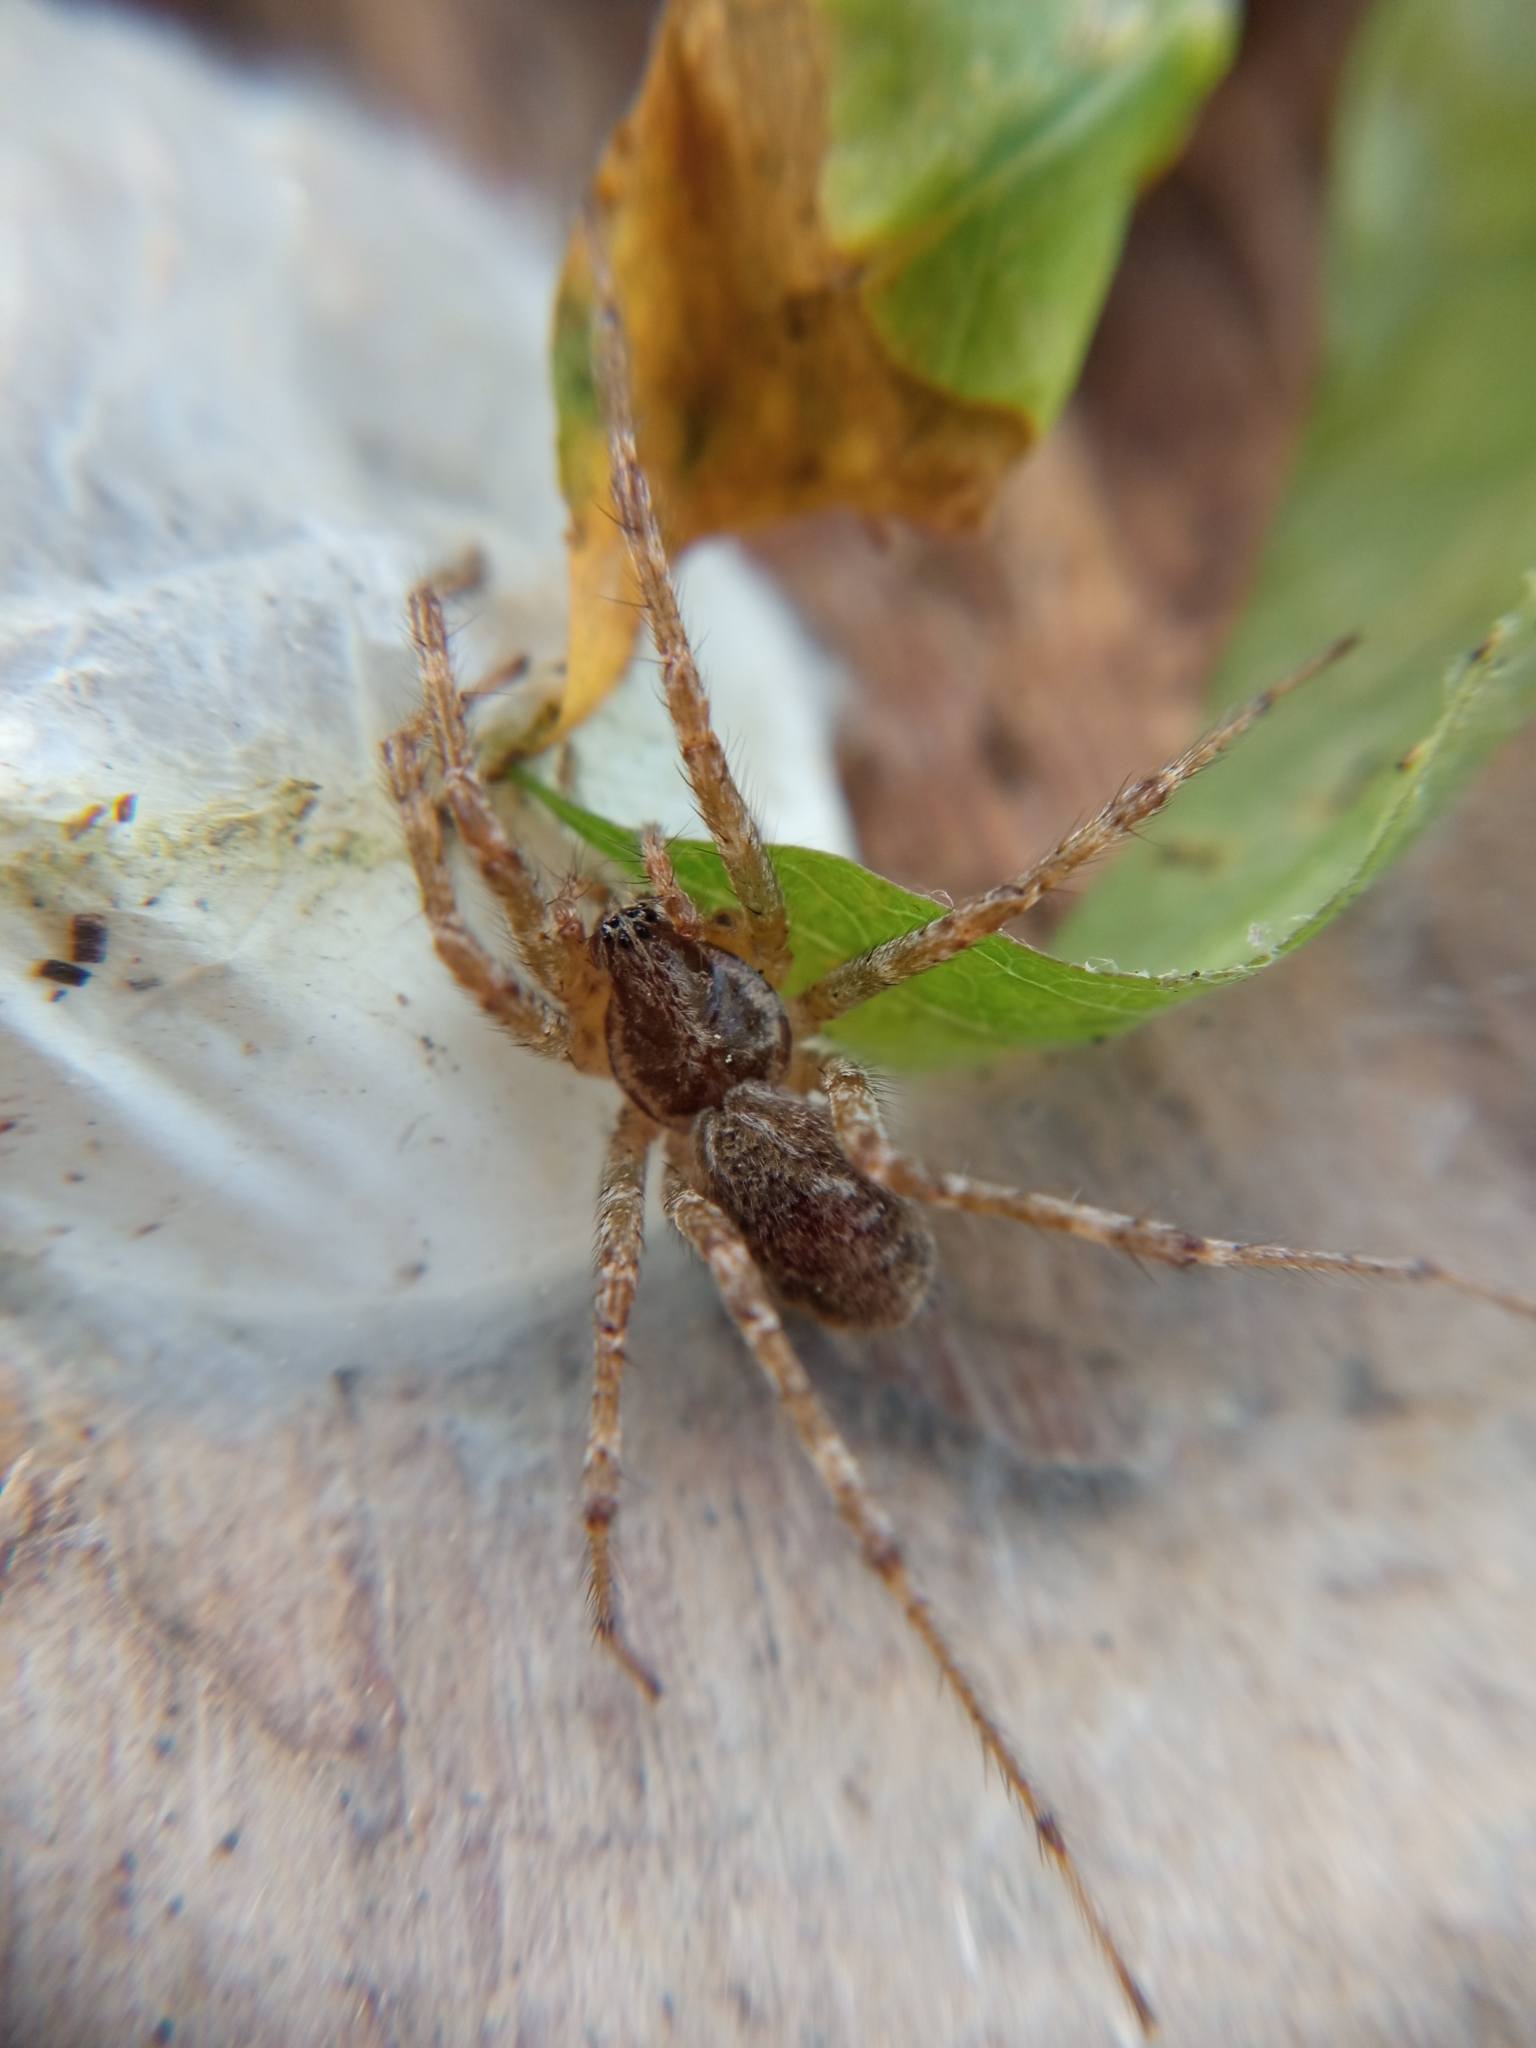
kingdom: Animalia
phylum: Arthropoda
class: Arachnida
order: Araneae
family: Agelenidae
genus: Allagelena
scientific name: Allagelena gracilens
